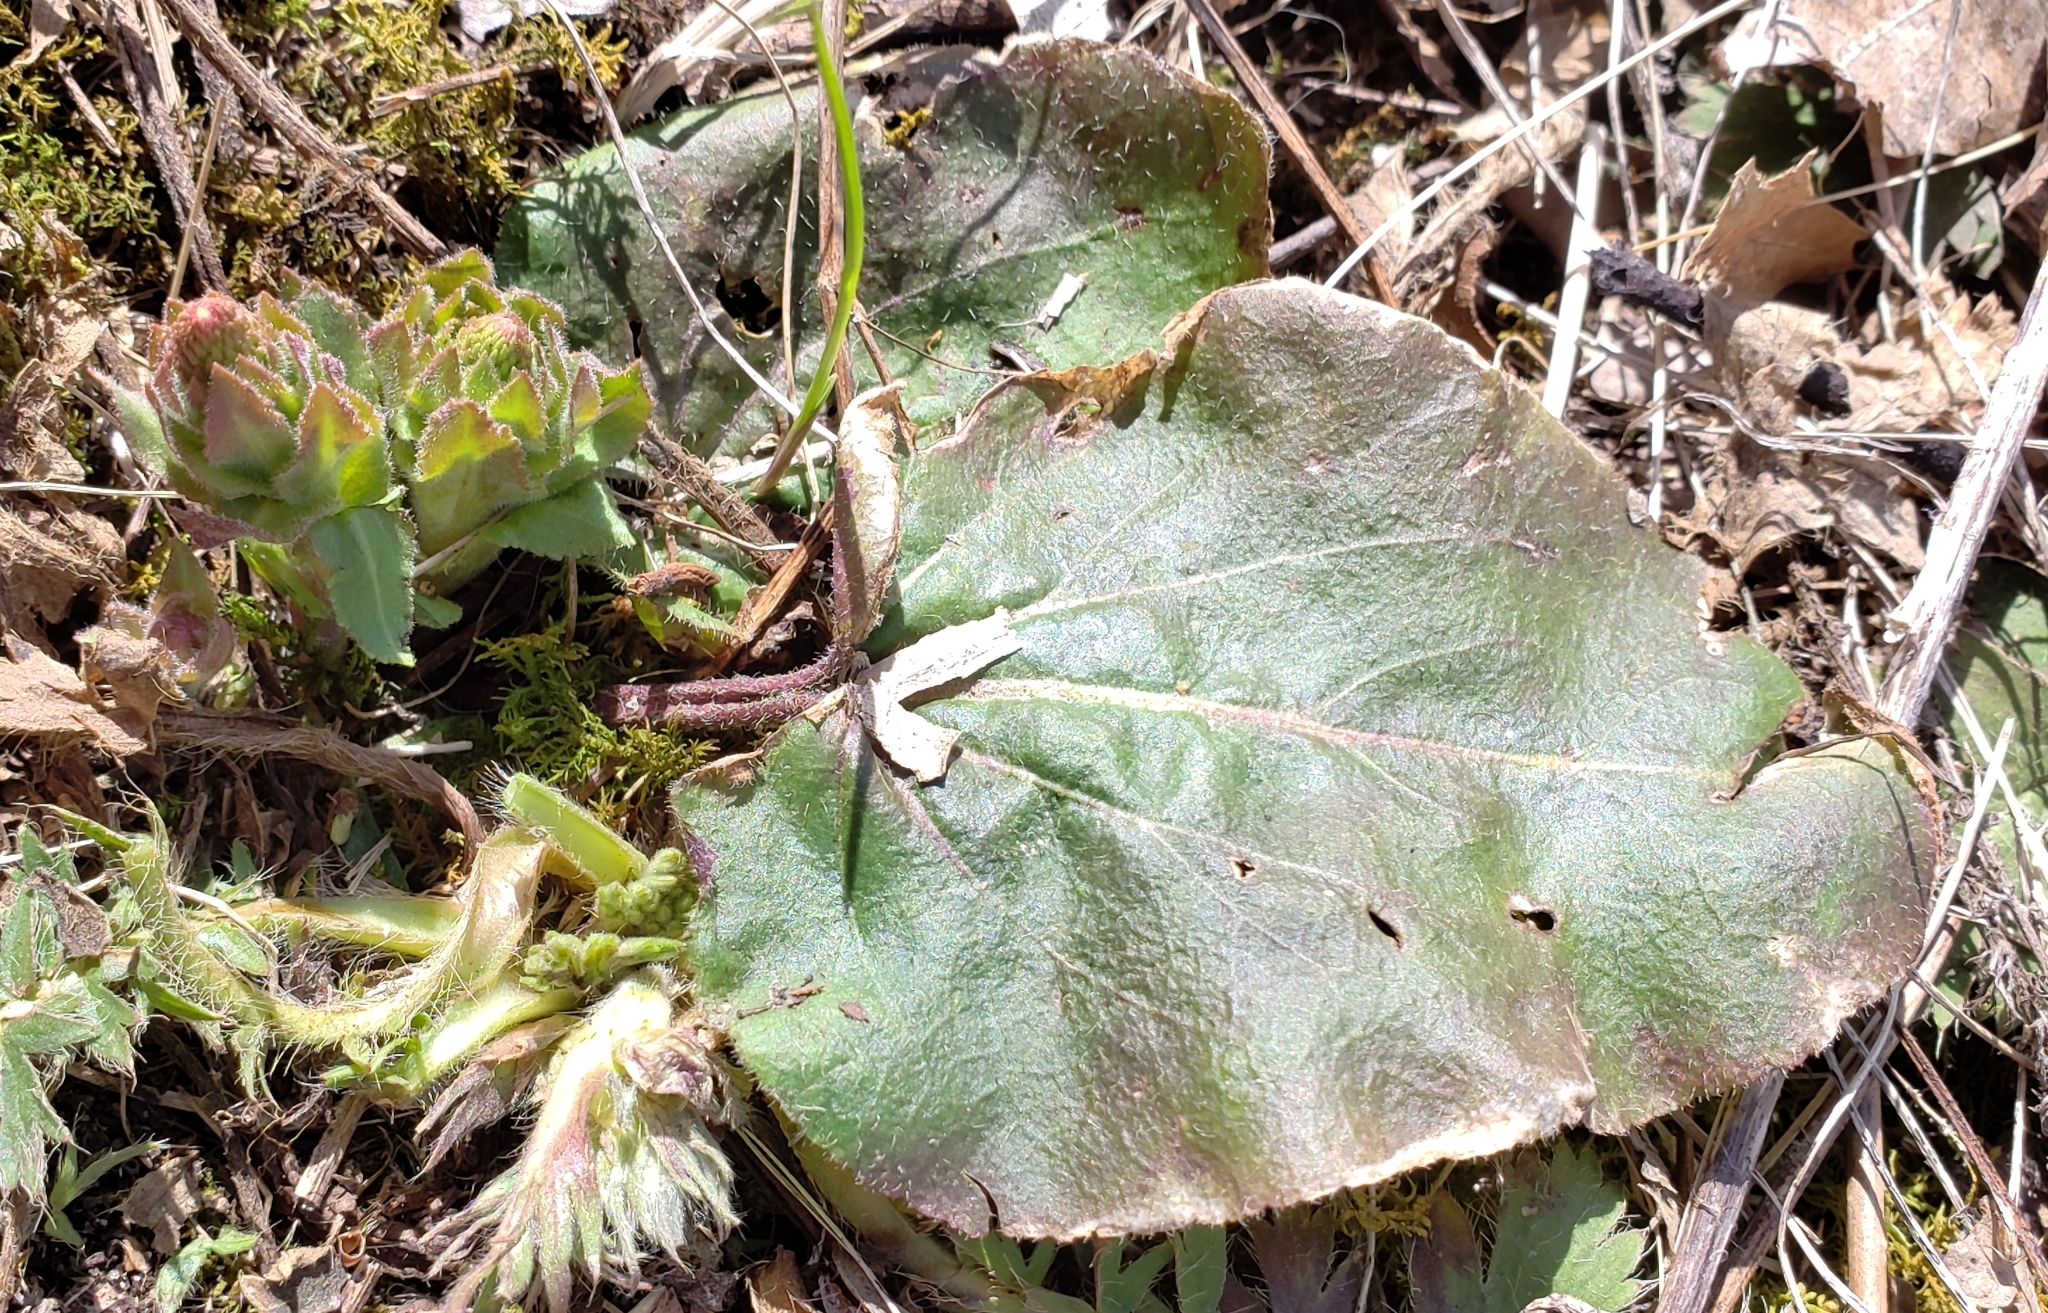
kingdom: Plantae
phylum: Tracheophyta
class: Magnoliopsida
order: Lamiales
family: Plantaginaceae
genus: Synthyris
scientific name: Synthyris bullii
